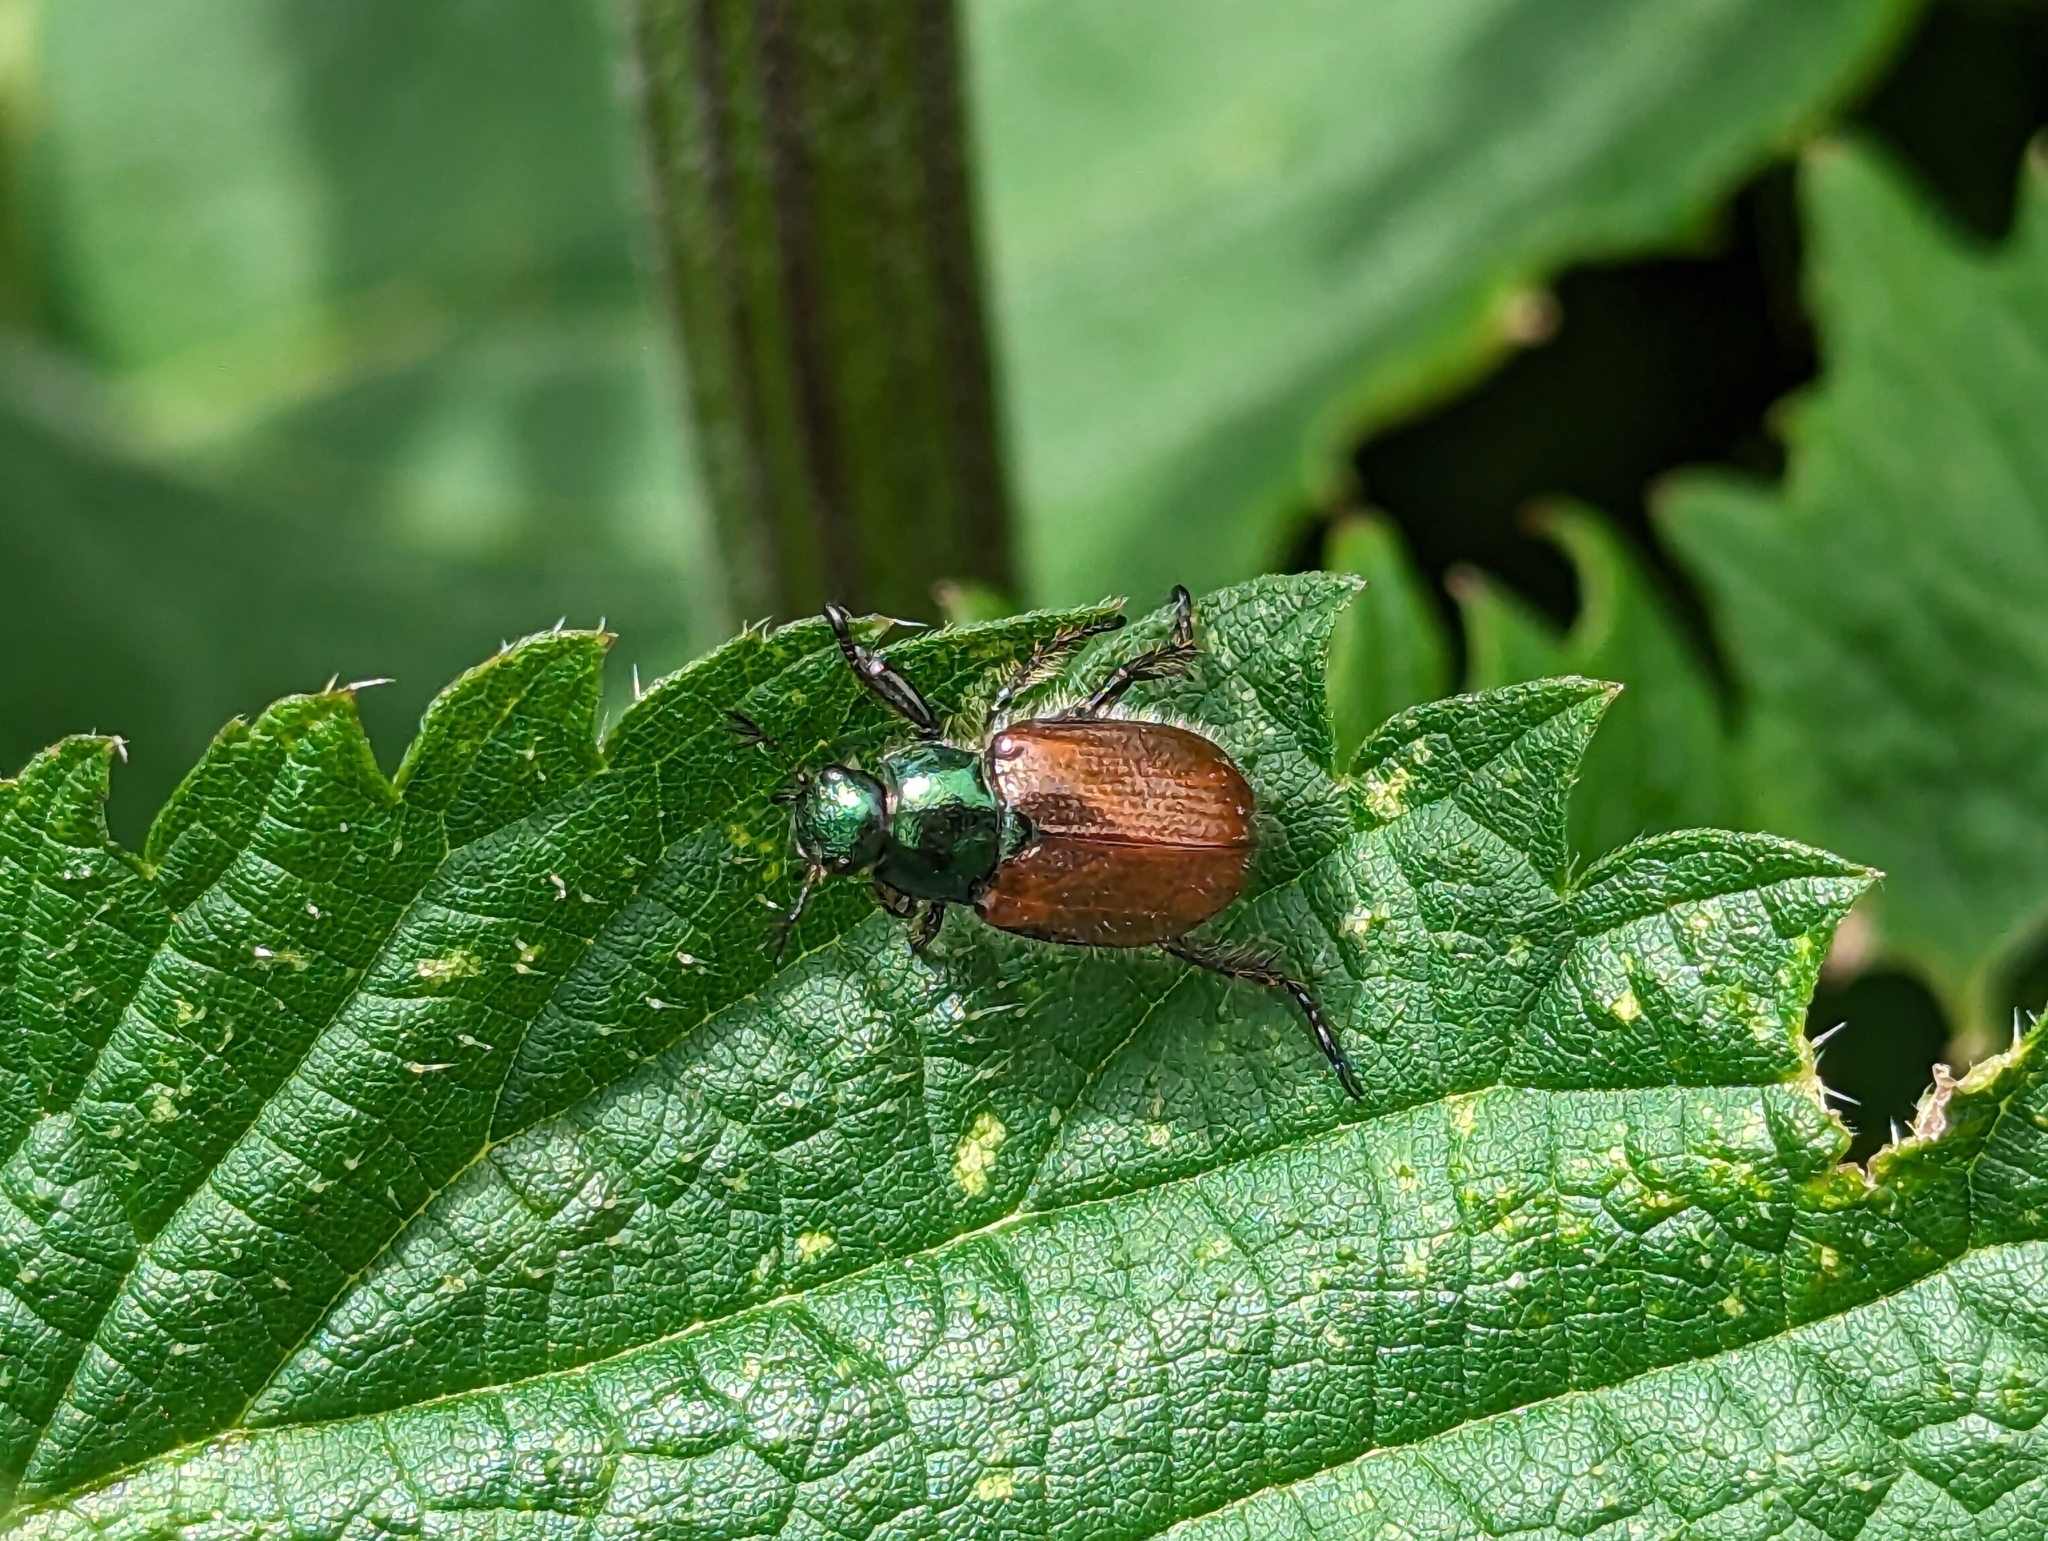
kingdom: Animalia
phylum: Arthropoda
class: Insecta
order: Coleoptera
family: Scarabaeidae
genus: Phyllopertha
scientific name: Phyllopertha horticola
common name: Garden chafer
